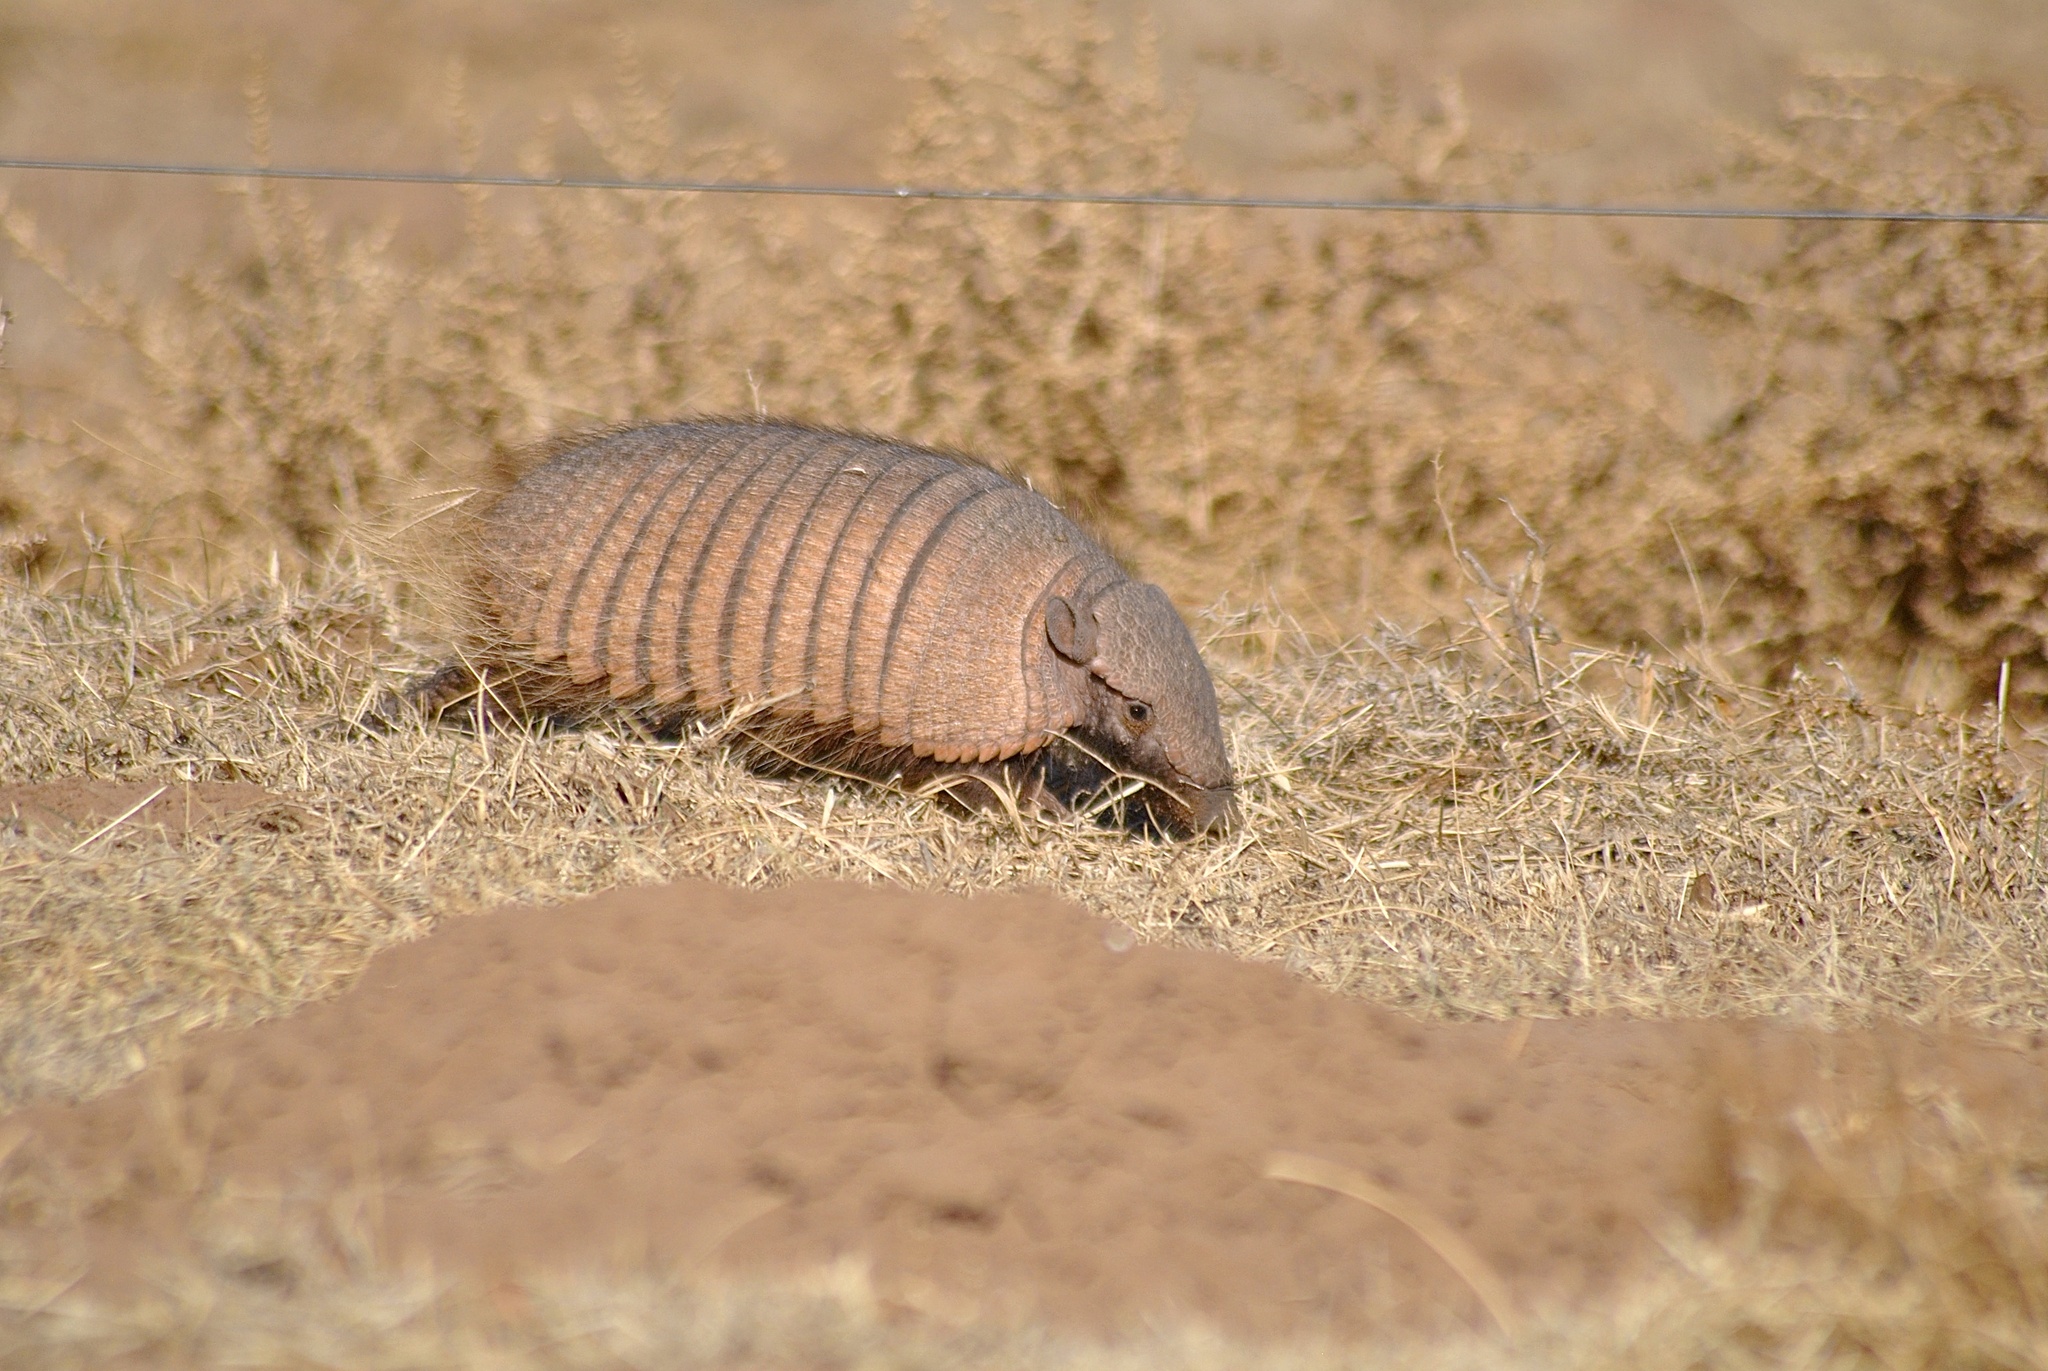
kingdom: Animalia
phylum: Chordata
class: Mammalia
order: Cingulata
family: Dasypodidae
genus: Chaetophractus
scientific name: Chaetophractus villosus
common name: Big hairy armadillo
